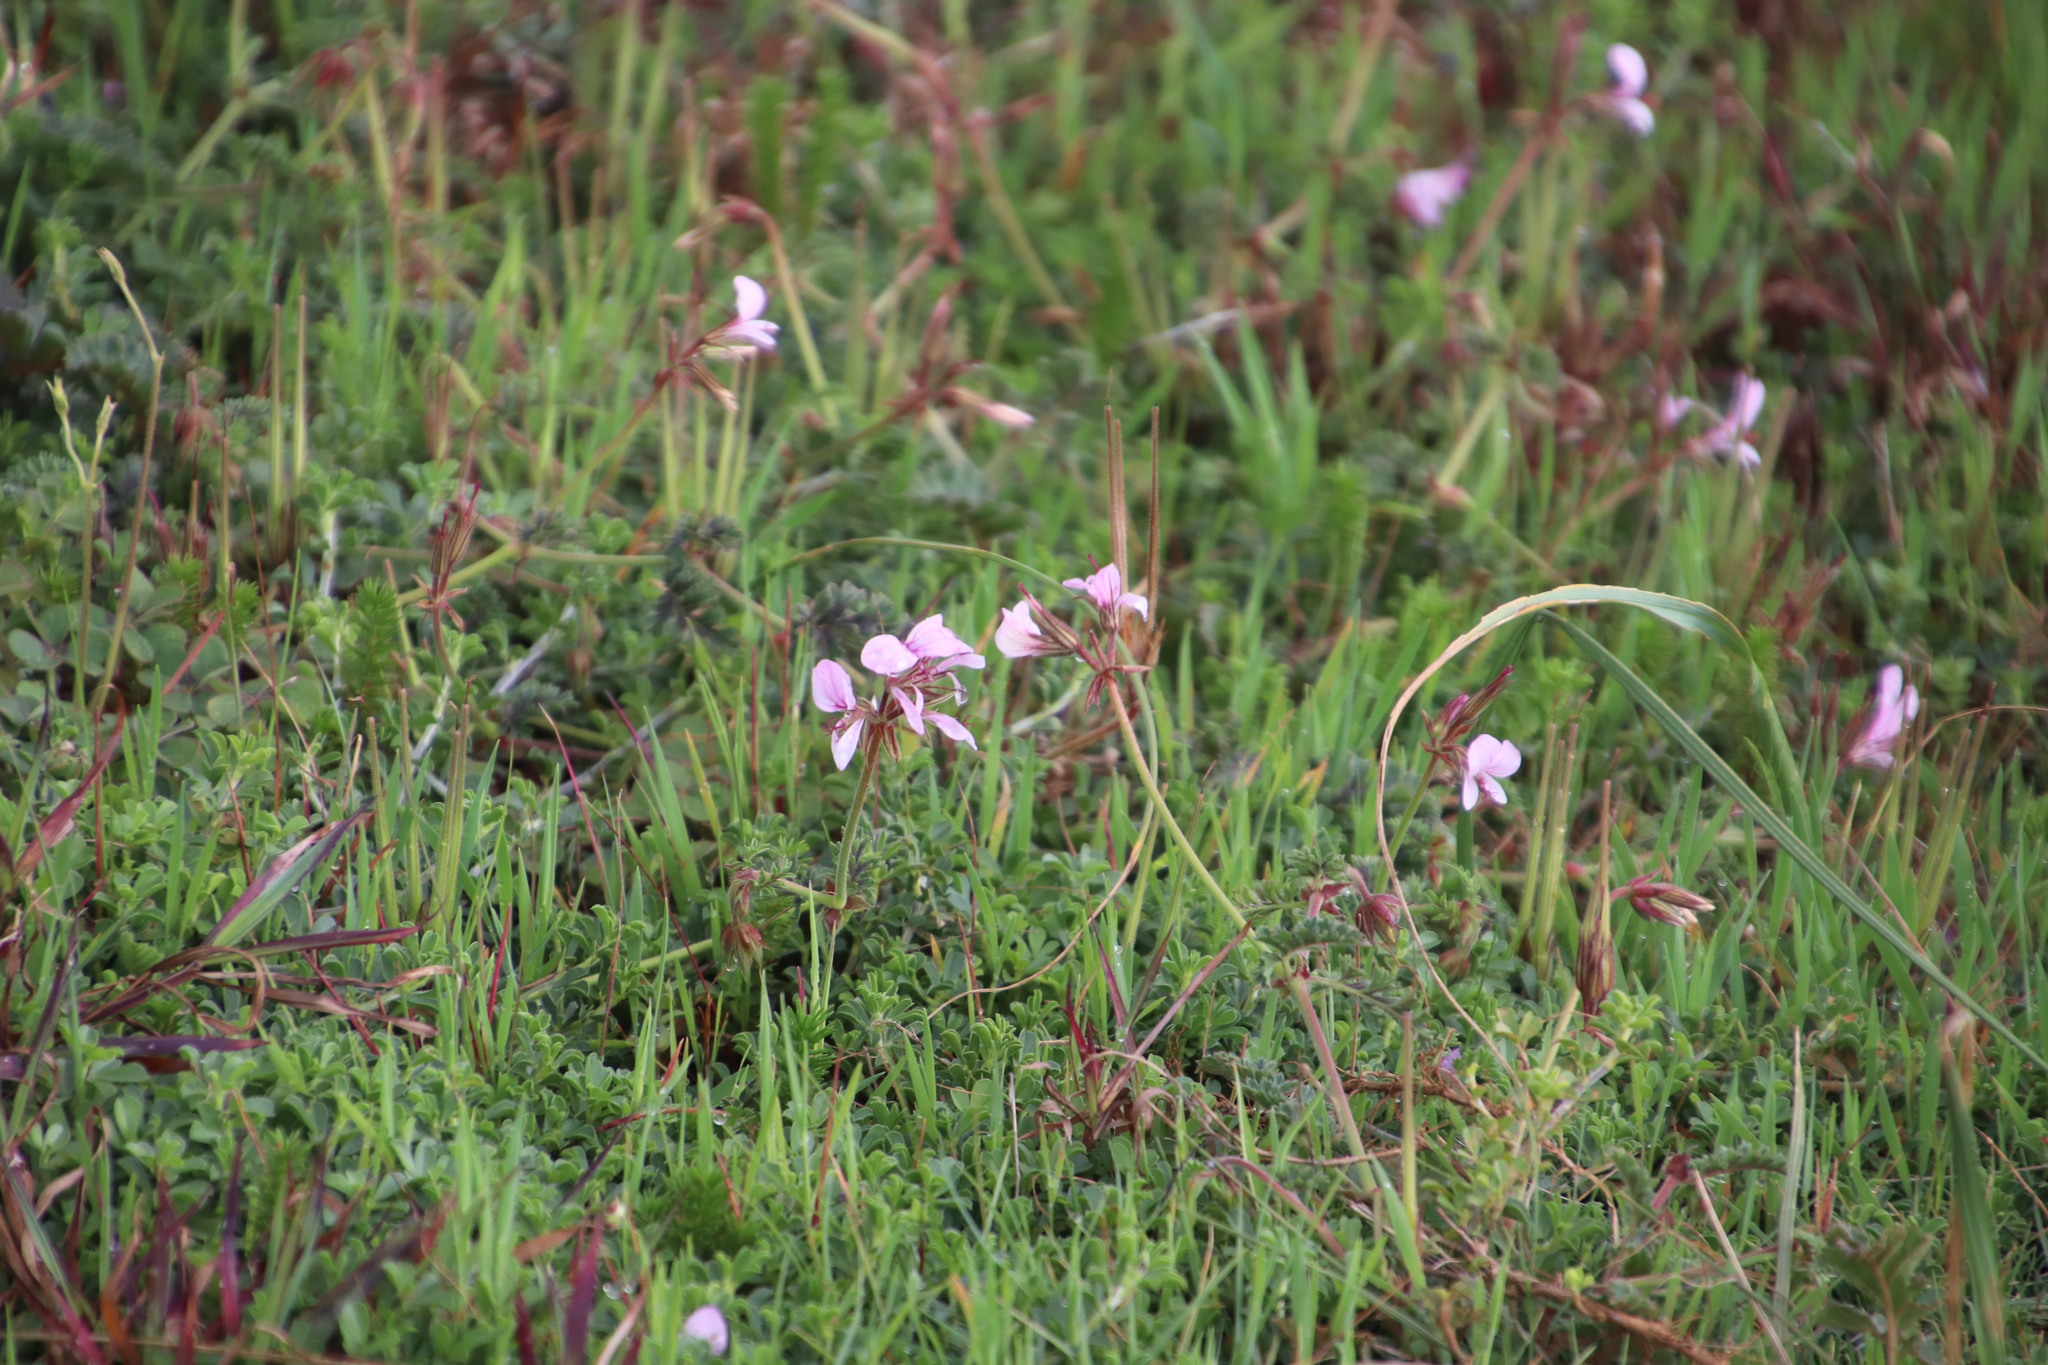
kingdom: Plantae
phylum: Tracheophyta
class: Magnoliopsida
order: Geraniales
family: Geraniaceae
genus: Pelargonium
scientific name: Pelargonium myrrhifolium
